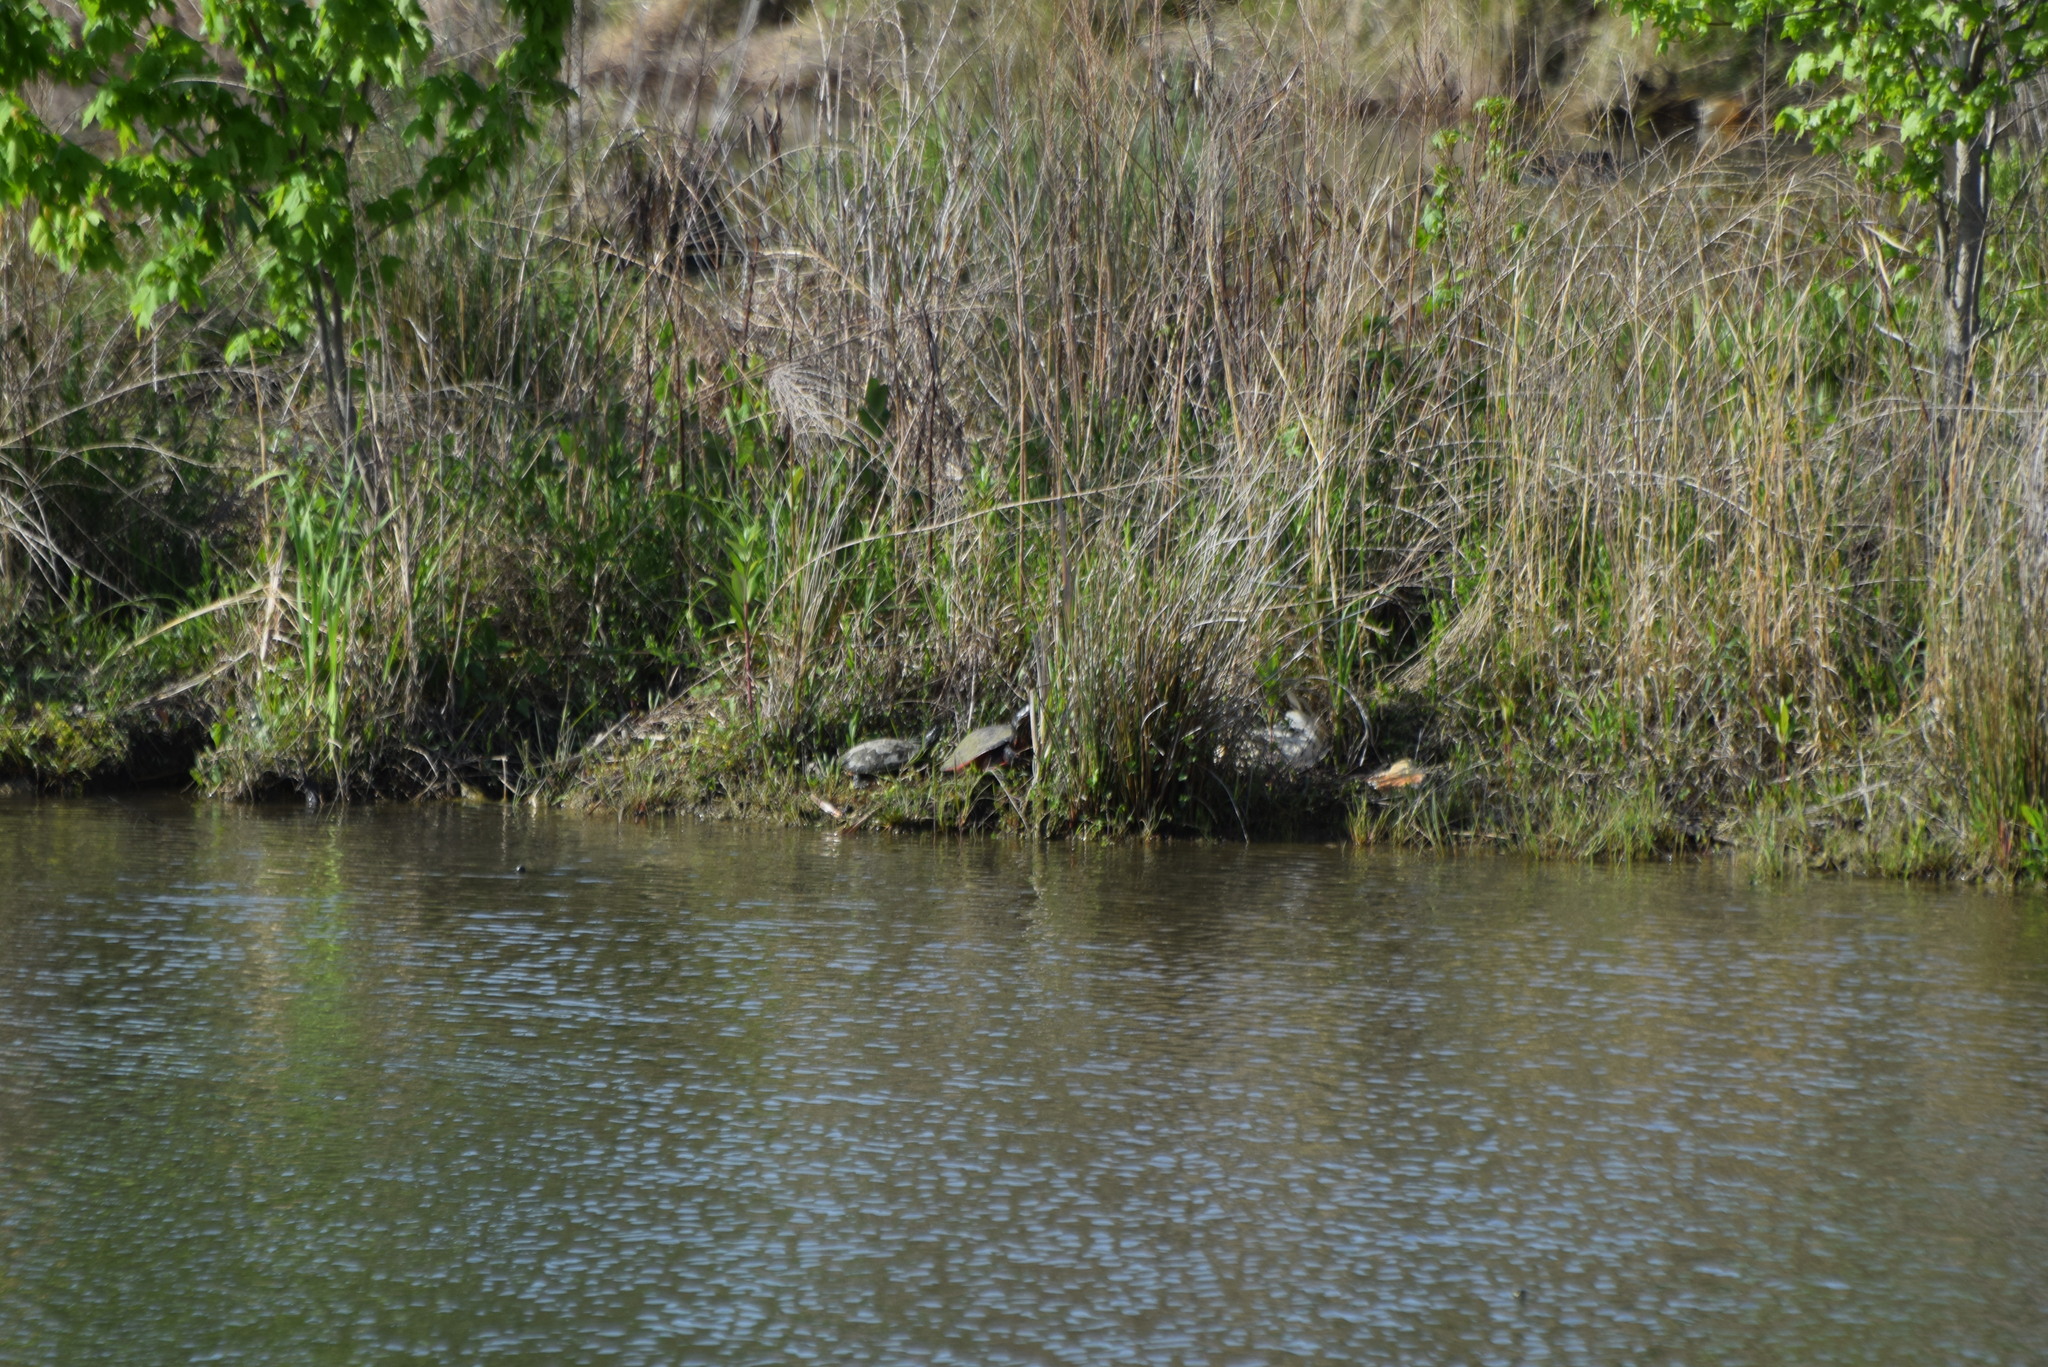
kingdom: Animalia
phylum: Chordata
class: Testudines
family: Emydidae
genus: Pseudemys
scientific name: Pseudemys rubriventris
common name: American red-bellied turtle
